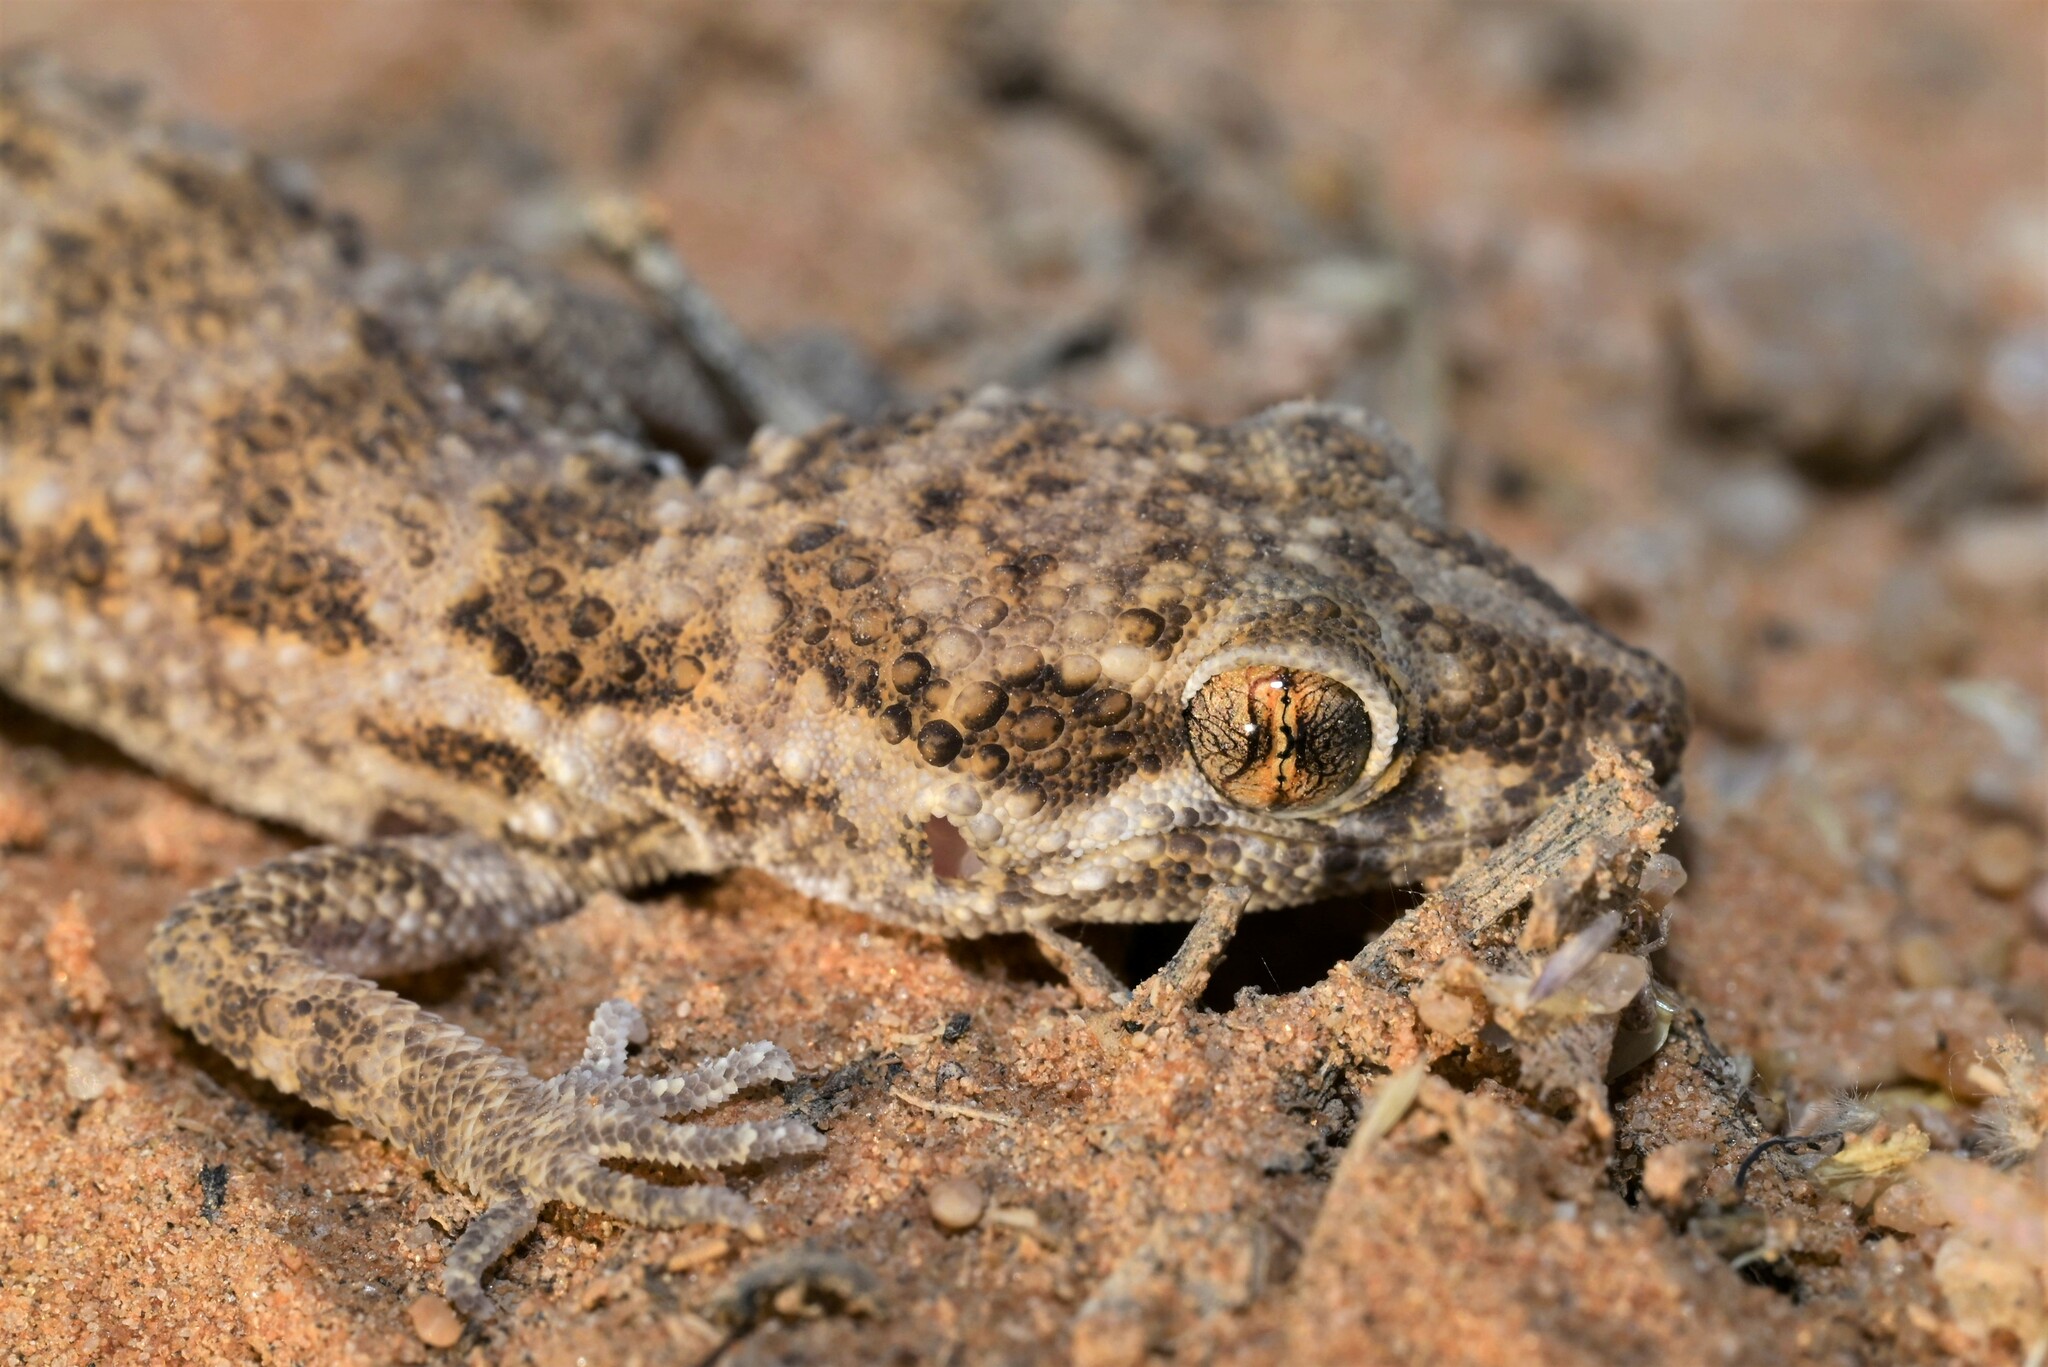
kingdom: Animalia
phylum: Chordata
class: Squamata
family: Gekkonidae
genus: Bunopus
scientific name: Bunopus tuberculatus
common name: Southern tuberculated gecko
